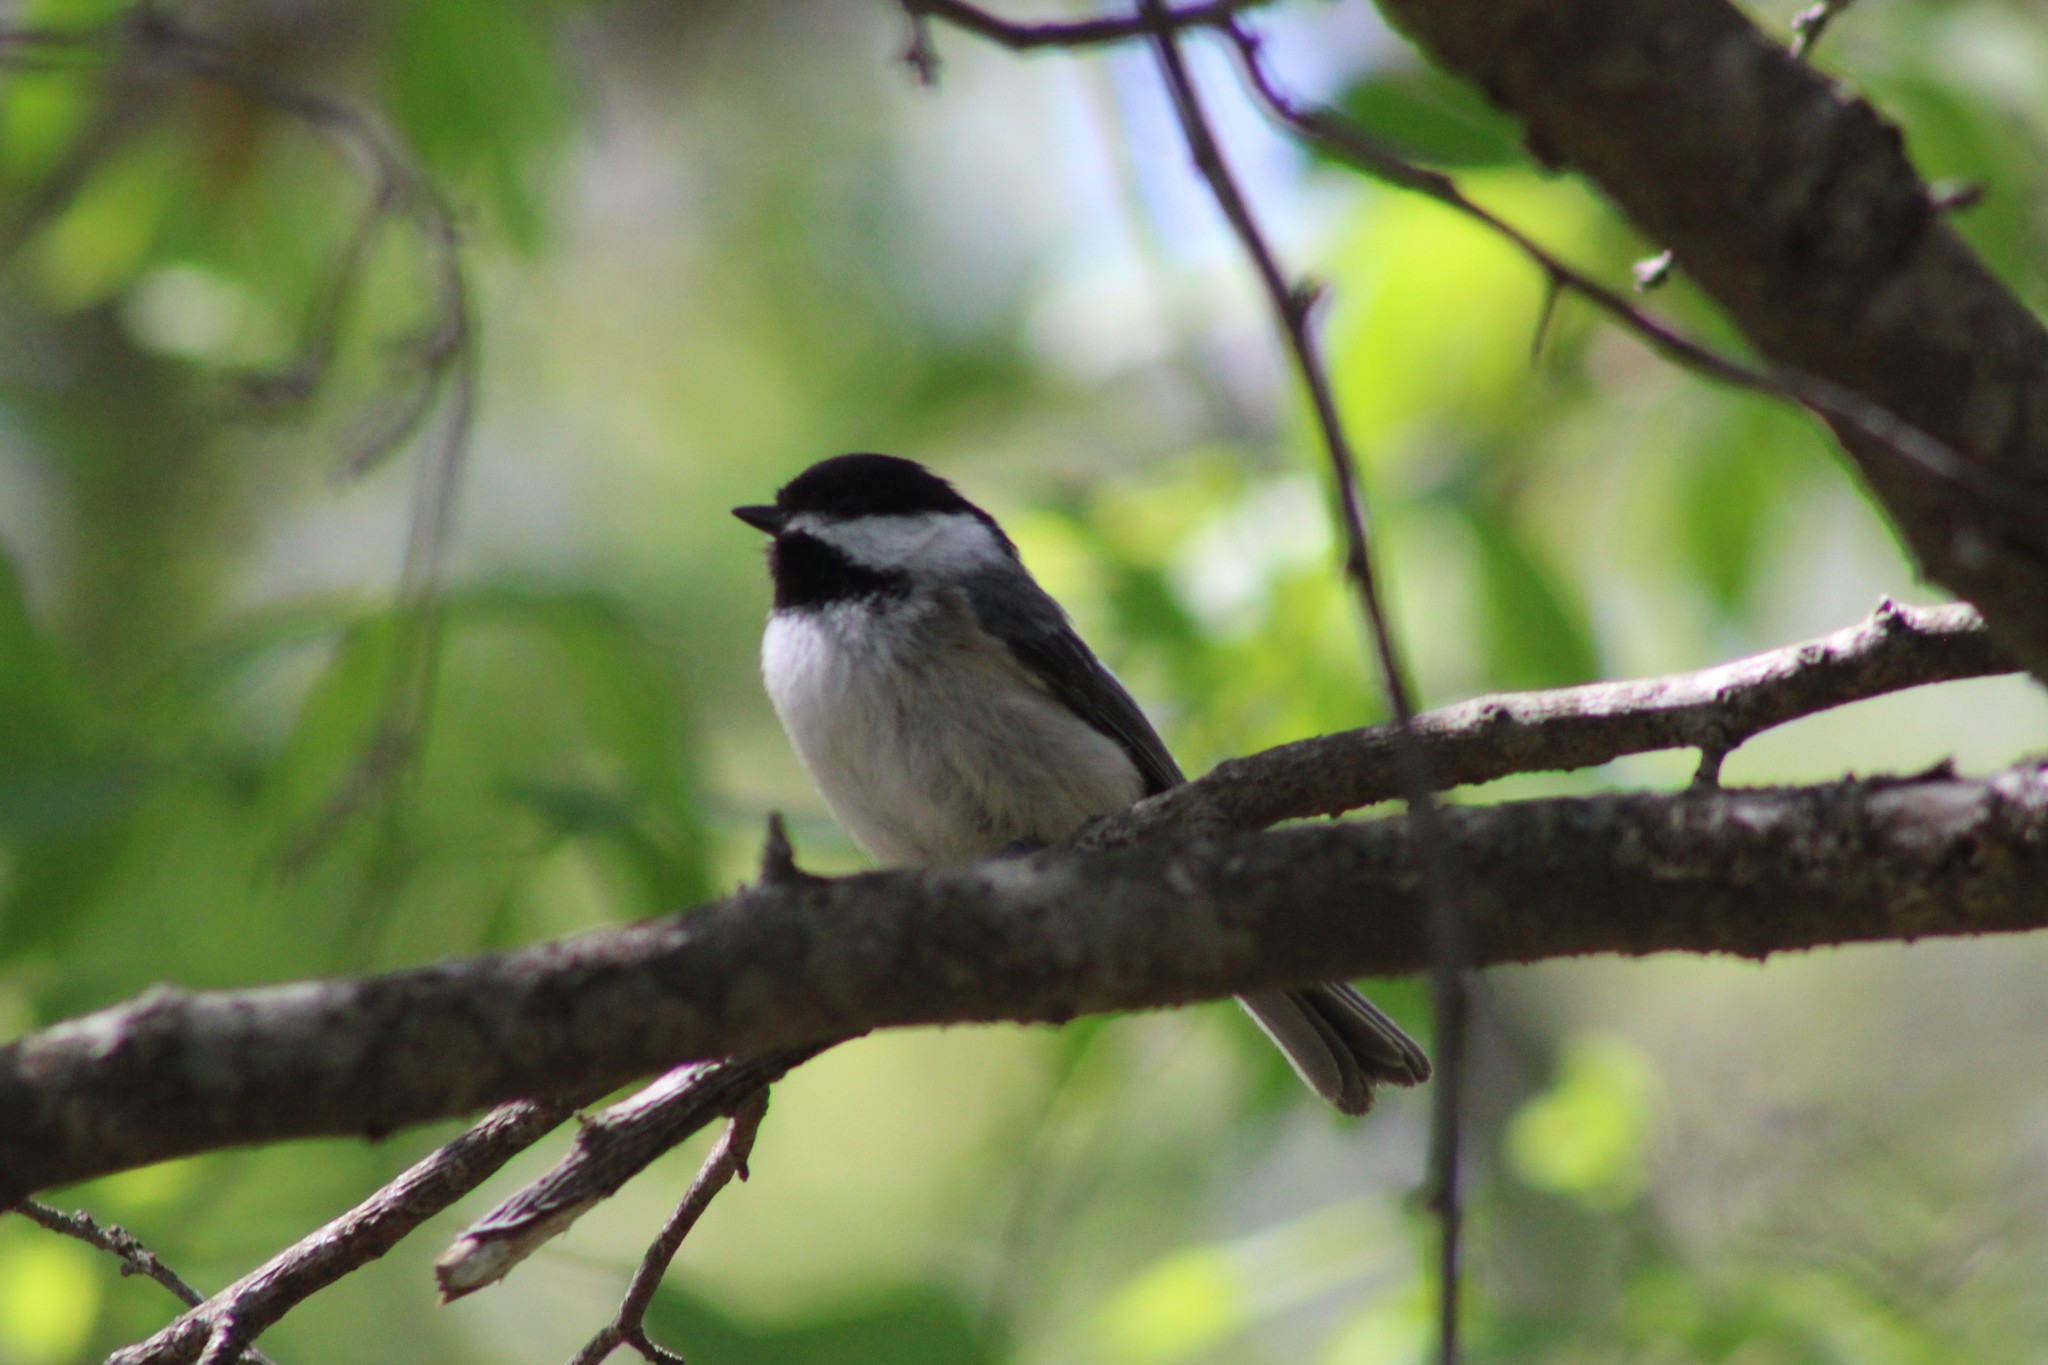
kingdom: Animalia
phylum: Chordata
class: Aves
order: Passeriformes
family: Paridae
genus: Poecile
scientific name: Poecile atricapillus
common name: Black-capped chickadee
